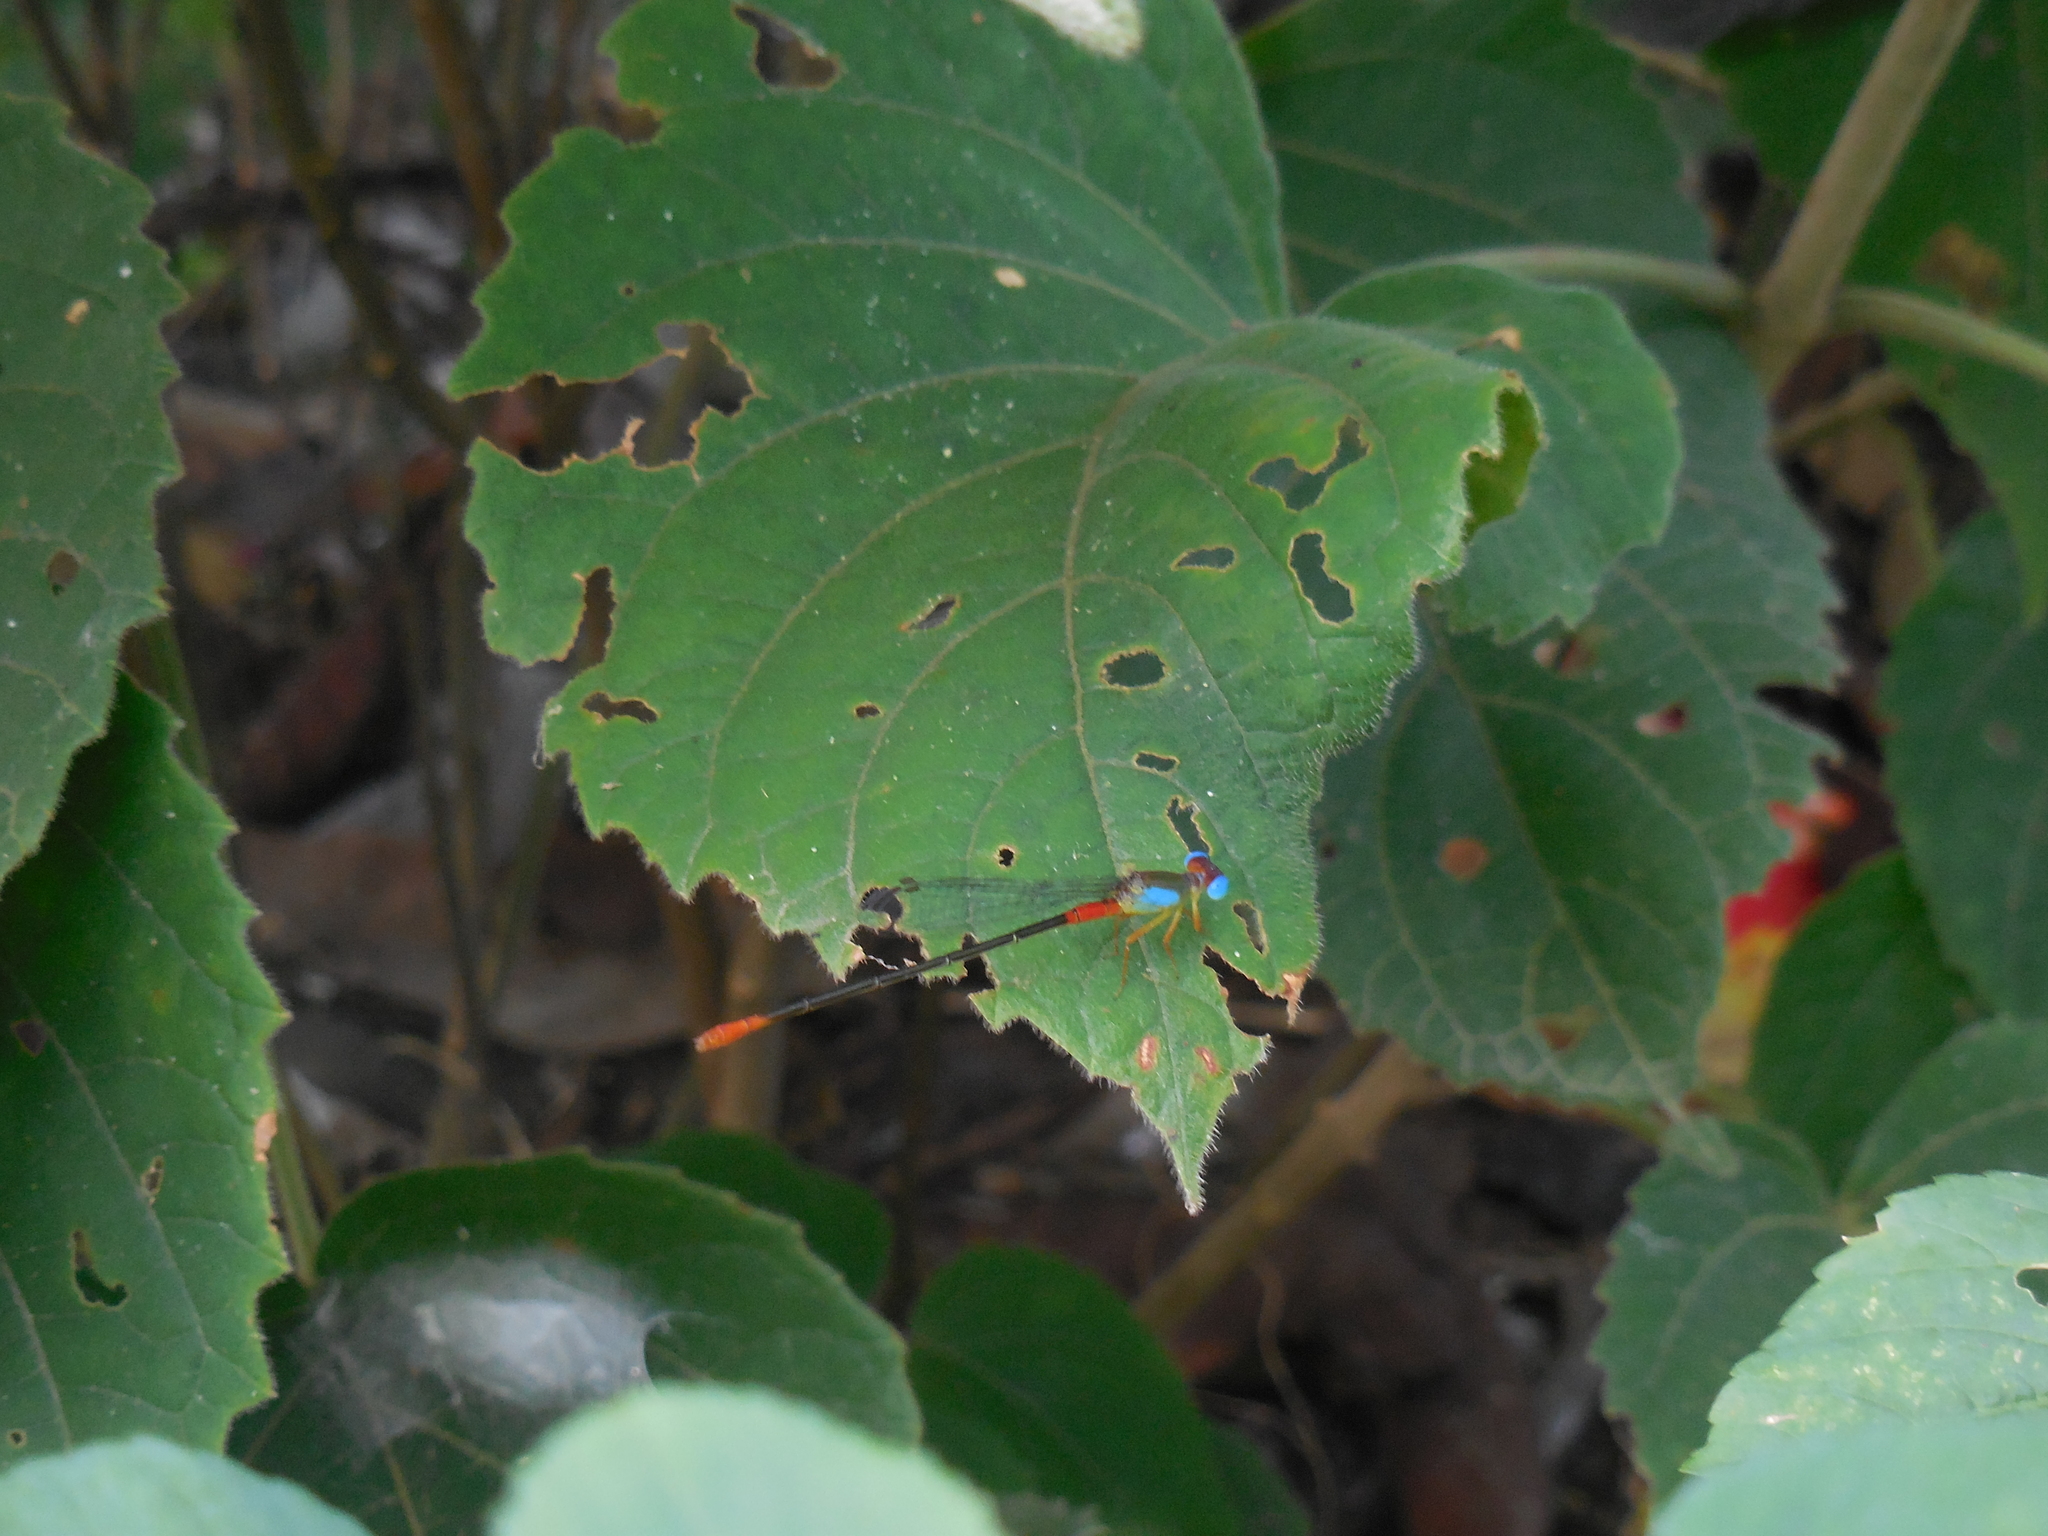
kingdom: Animalia
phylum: Arthropoda
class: Insecta
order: Odonata
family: Coenagrionidae
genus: Ceriagrion
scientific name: Ceriagrion cerinorubellum
